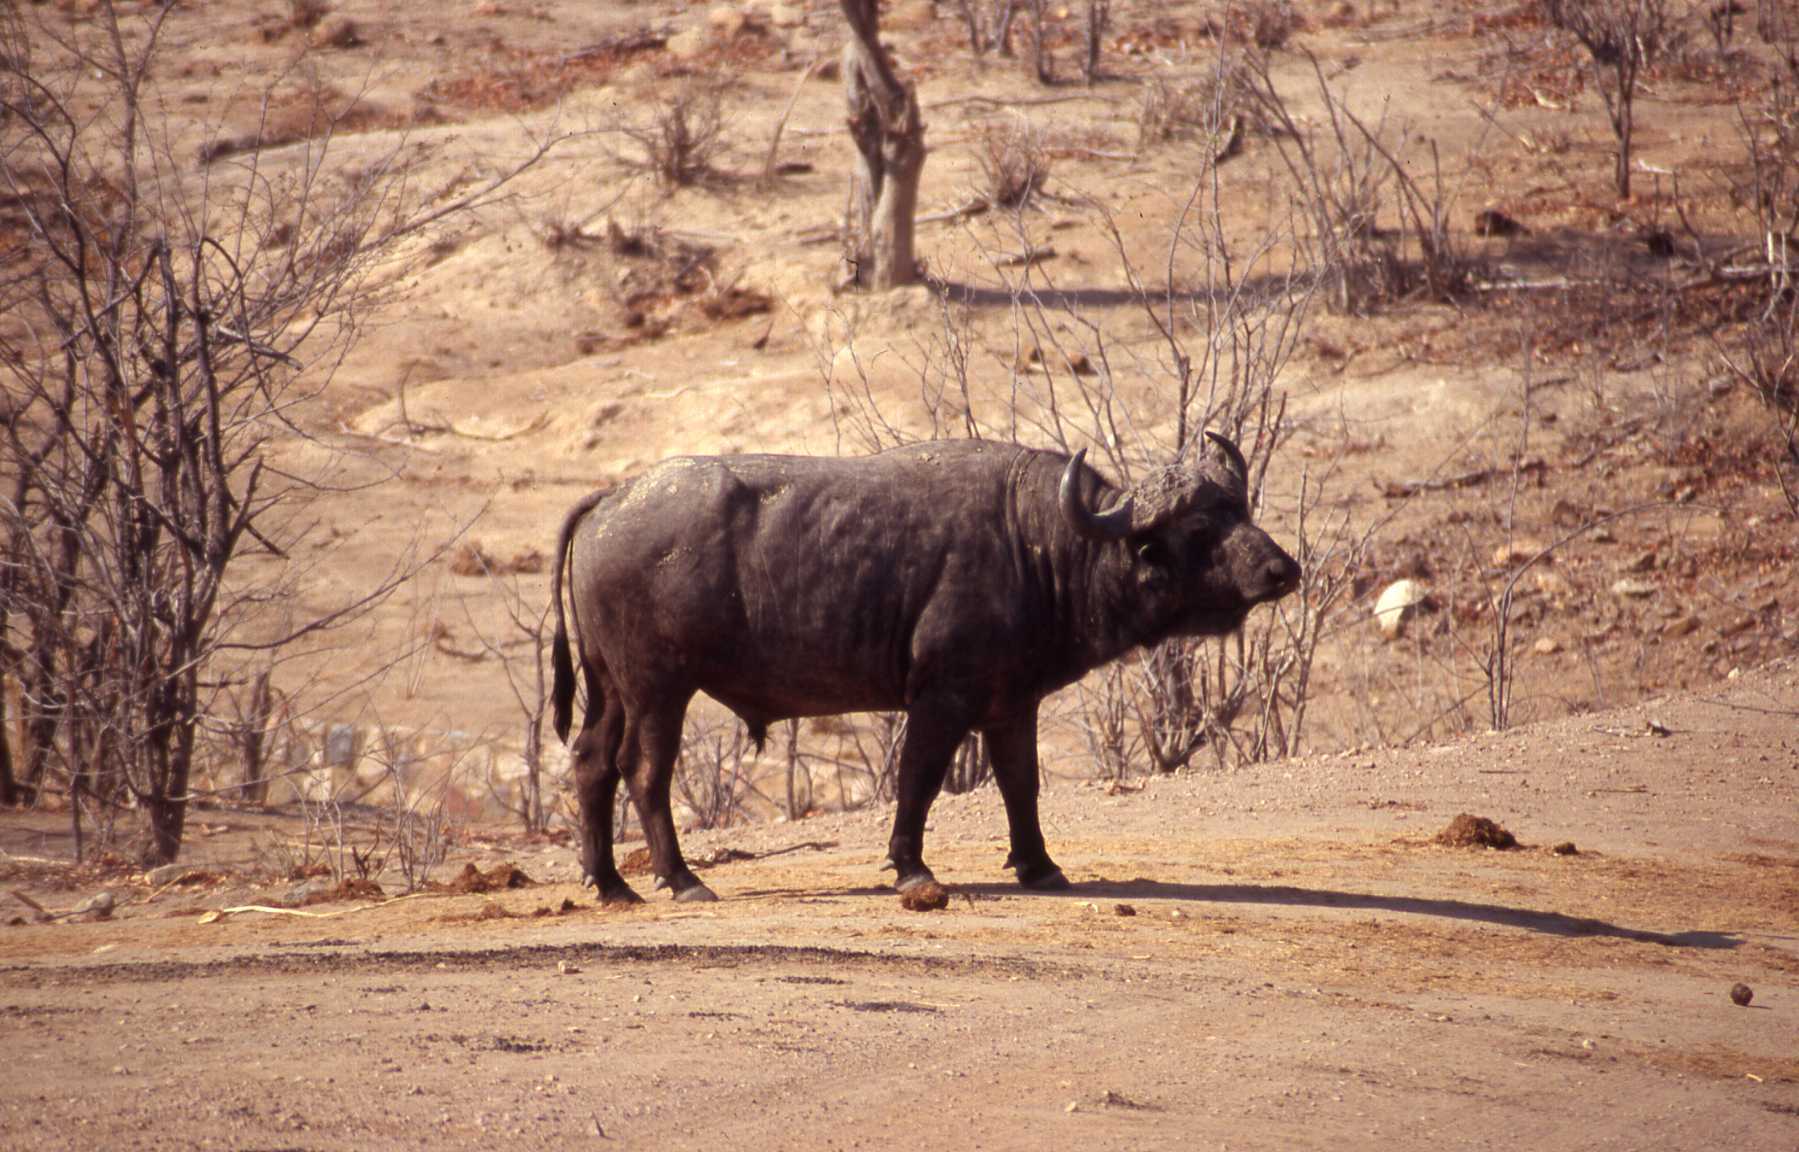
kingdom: Animalia
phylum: Chordata
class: Mammalia
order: Artiodactyla
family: Bovidae
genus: Syncerus
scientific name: Syncerus caffer
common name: African buffalo
